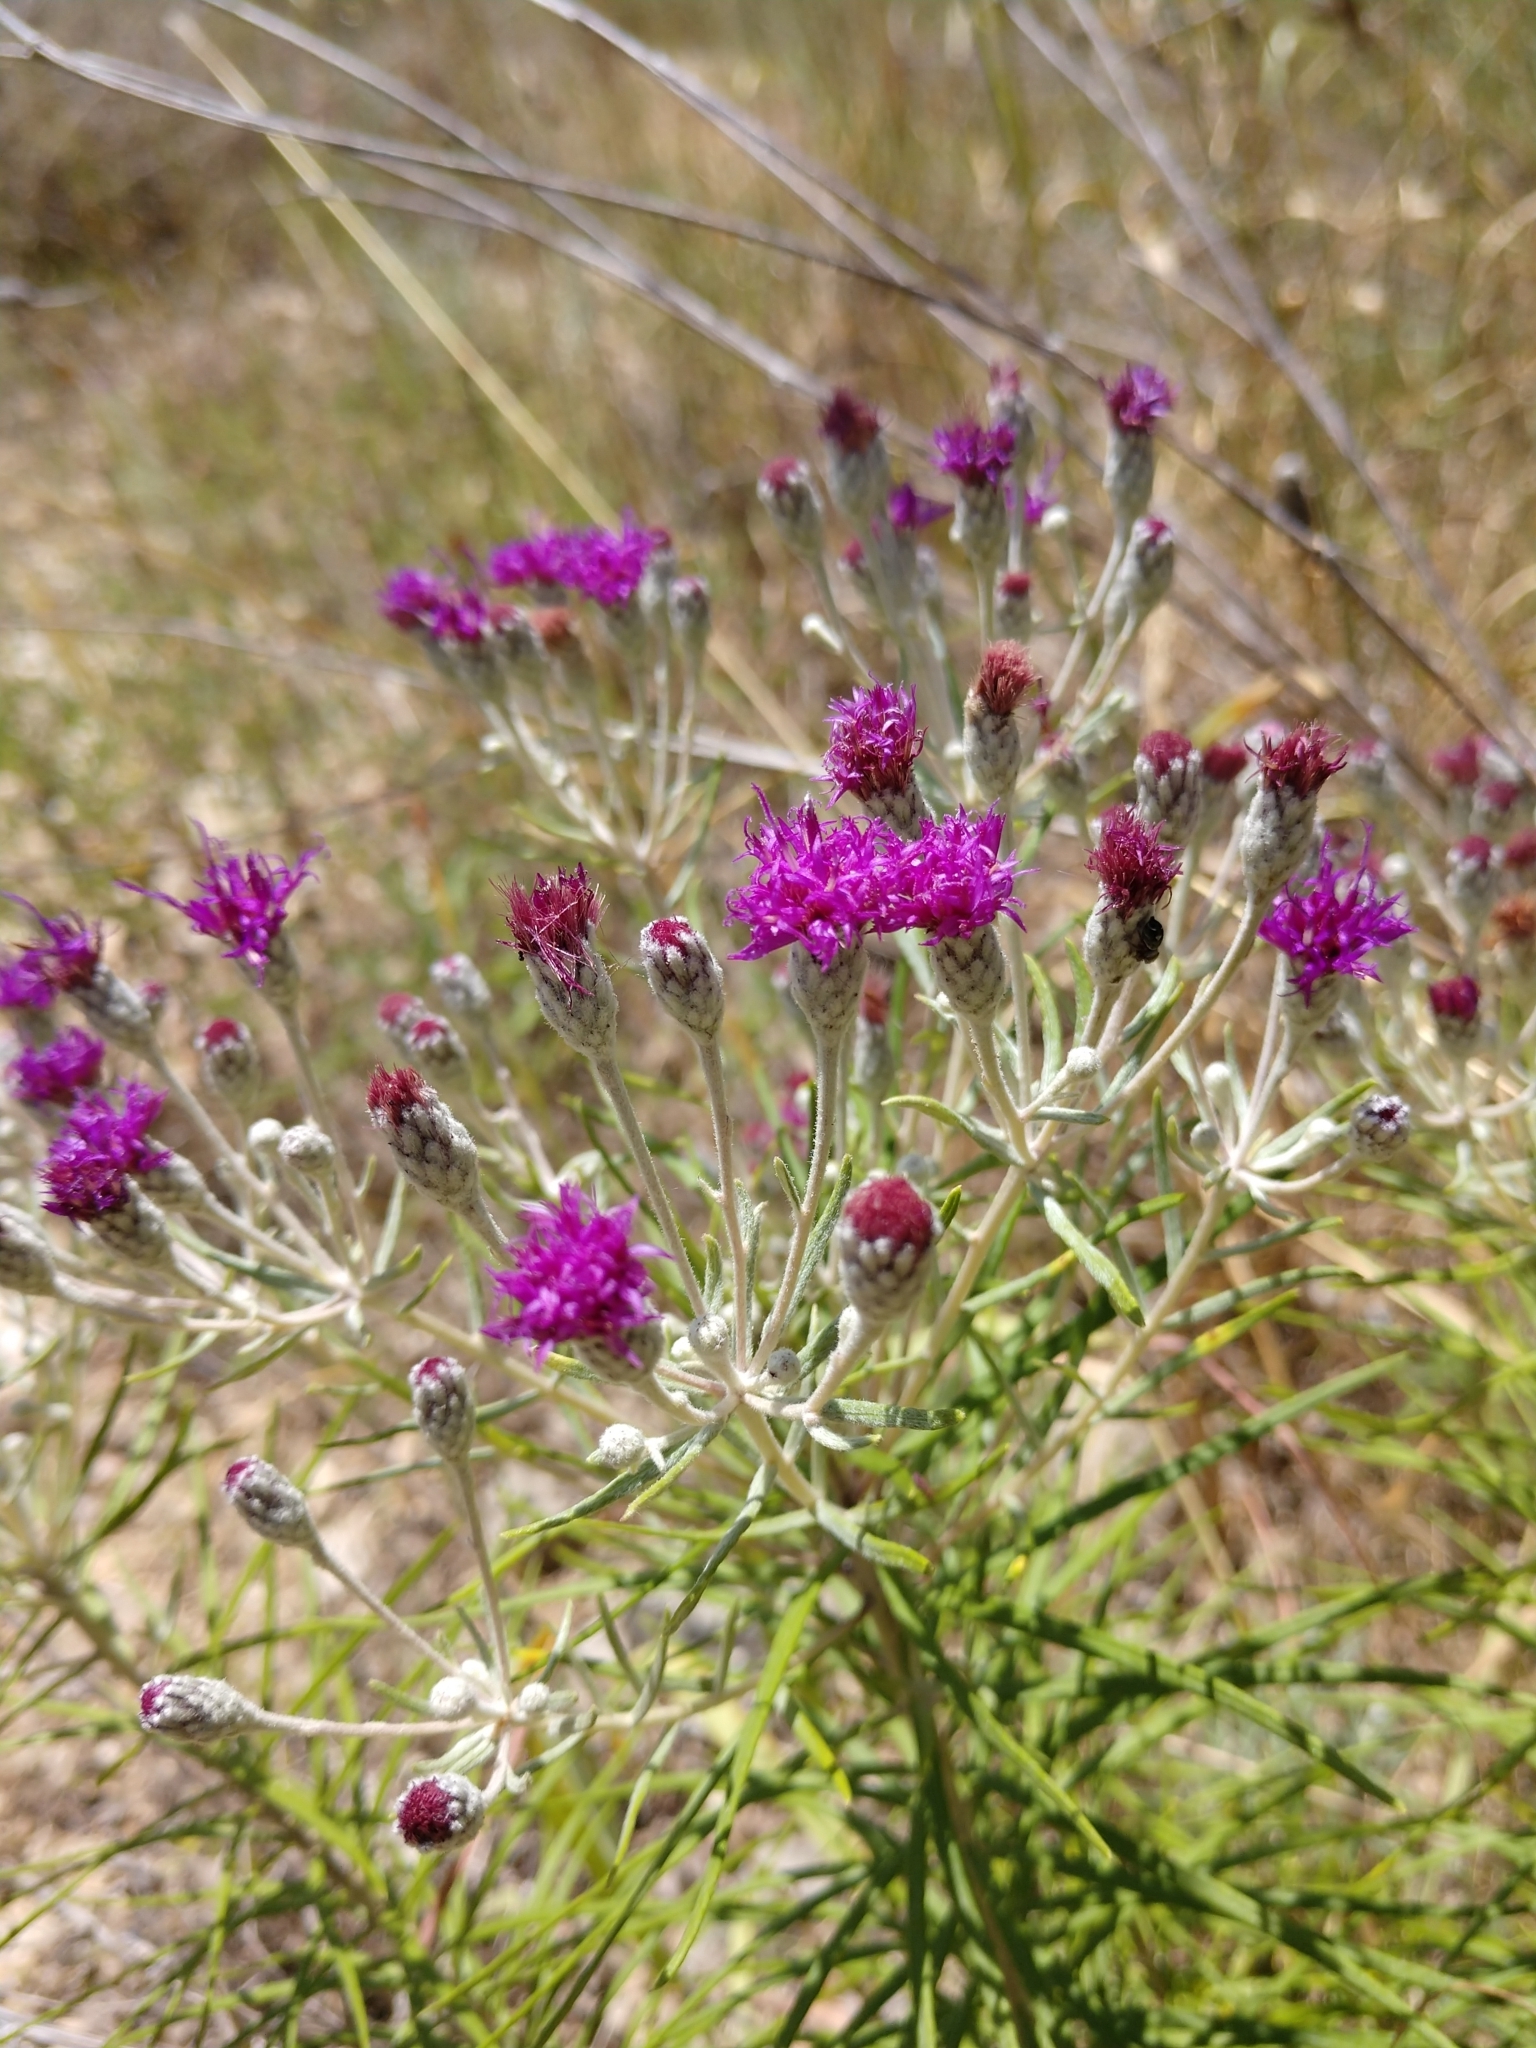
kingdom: Plantae
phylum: Tracheophyta
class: Magnoliopsida
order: Asterales
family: Asteraceae
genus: Vernonia
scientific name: Vernonia lindheimeri
